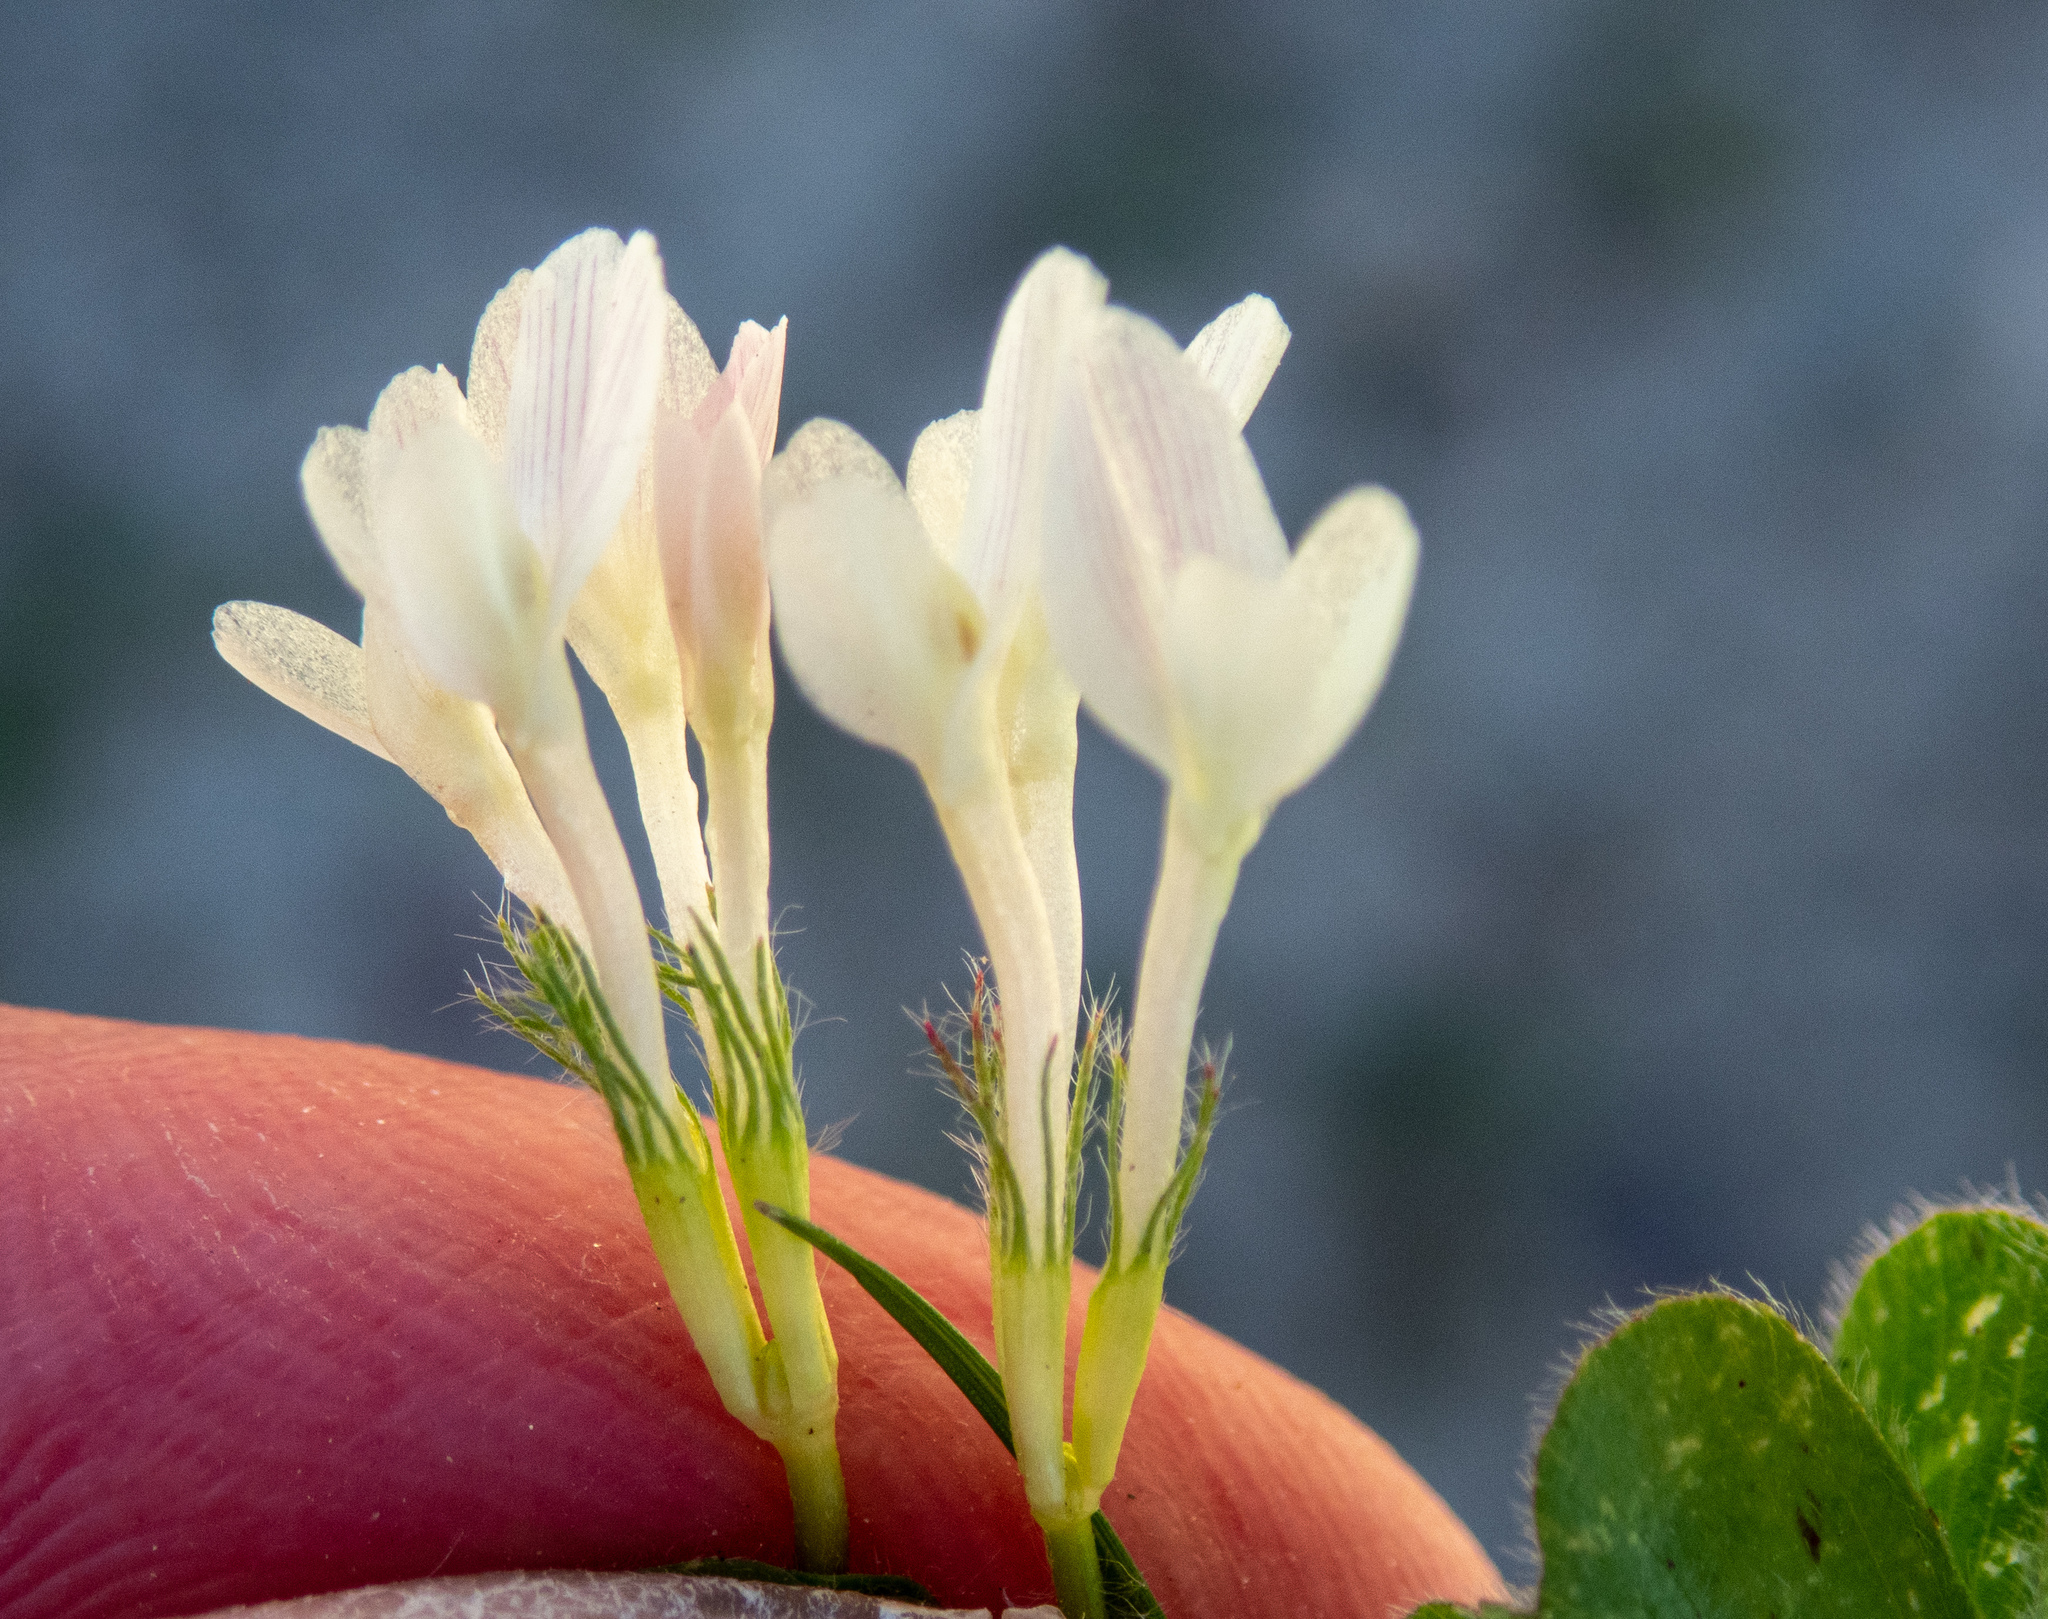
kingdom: Plantae
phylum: Tracheophyta
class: Magnoliopsida
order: Fabales
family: Fabaceae
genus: Trifolium
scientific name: Trifolium subterraneum
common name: Subterranean clover
